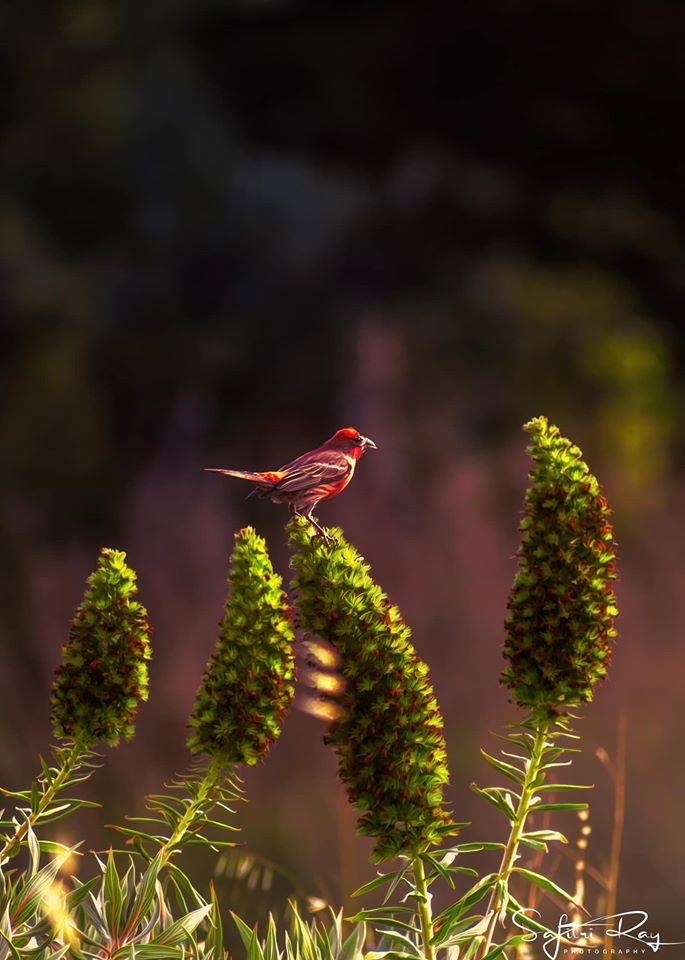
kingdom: Animalia
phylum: Chordata
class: Aves
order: Passeriformes
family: Fringillidae
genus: Haemorhous
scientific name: Haemorhous mexicanus
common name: House finch
